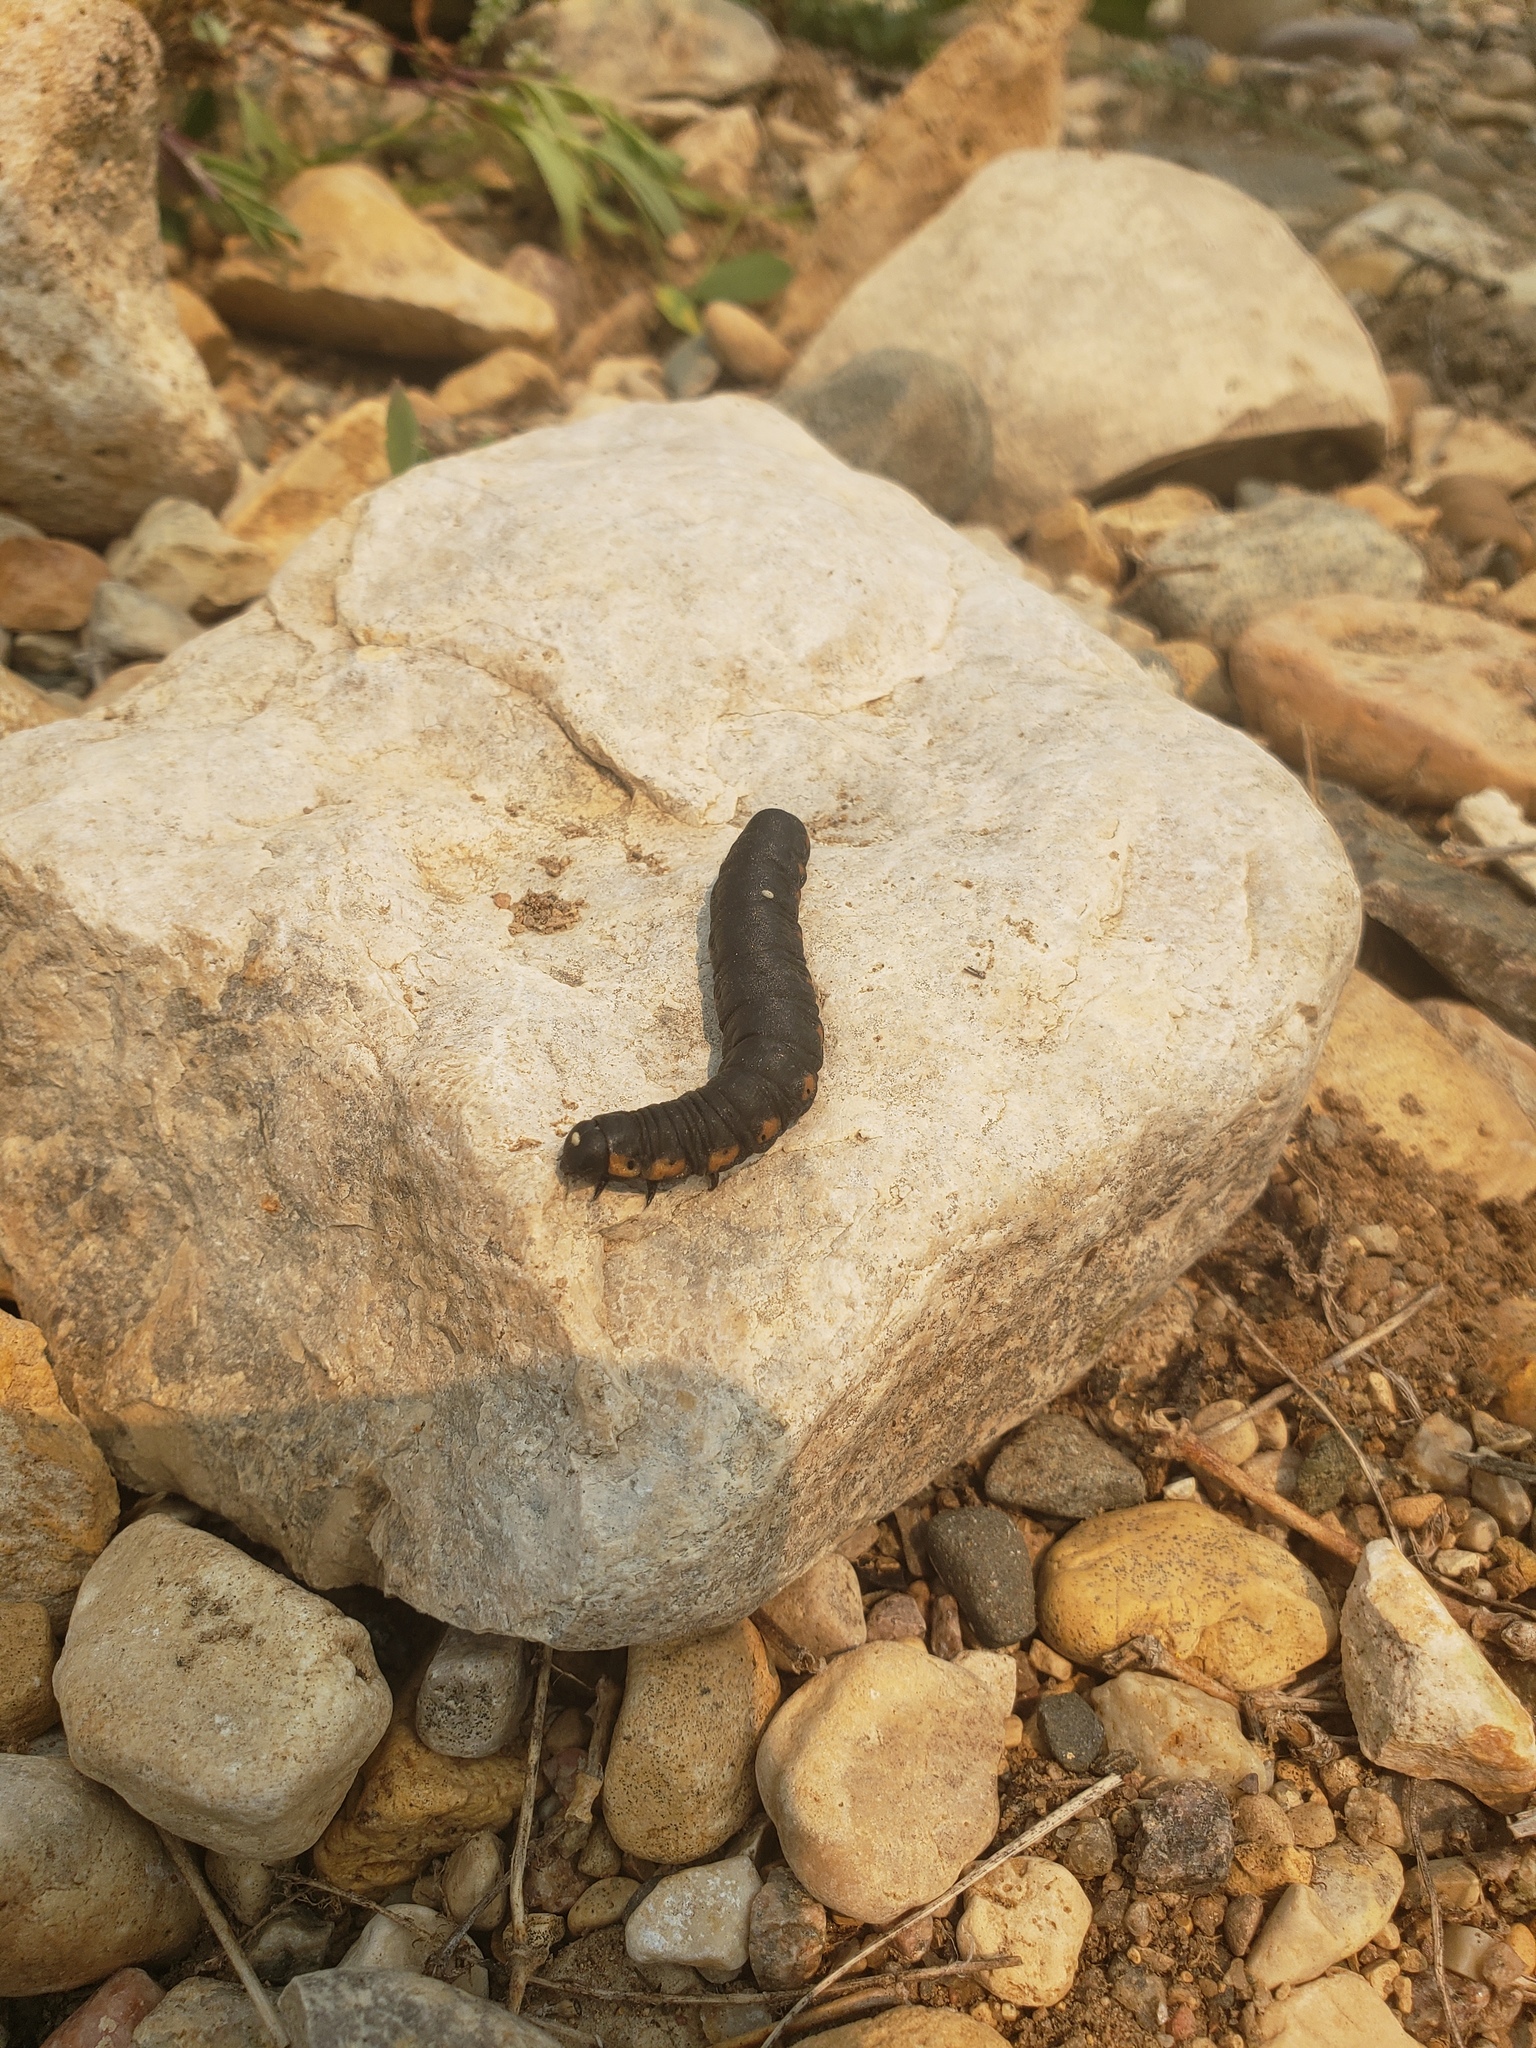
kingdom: Animalia
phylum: Arthropoda
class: Insecta
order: Lepidoptera
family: Noctuidae
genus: Cucullia
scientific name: Cucullia intermedia
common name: Goldenrod cutworm
